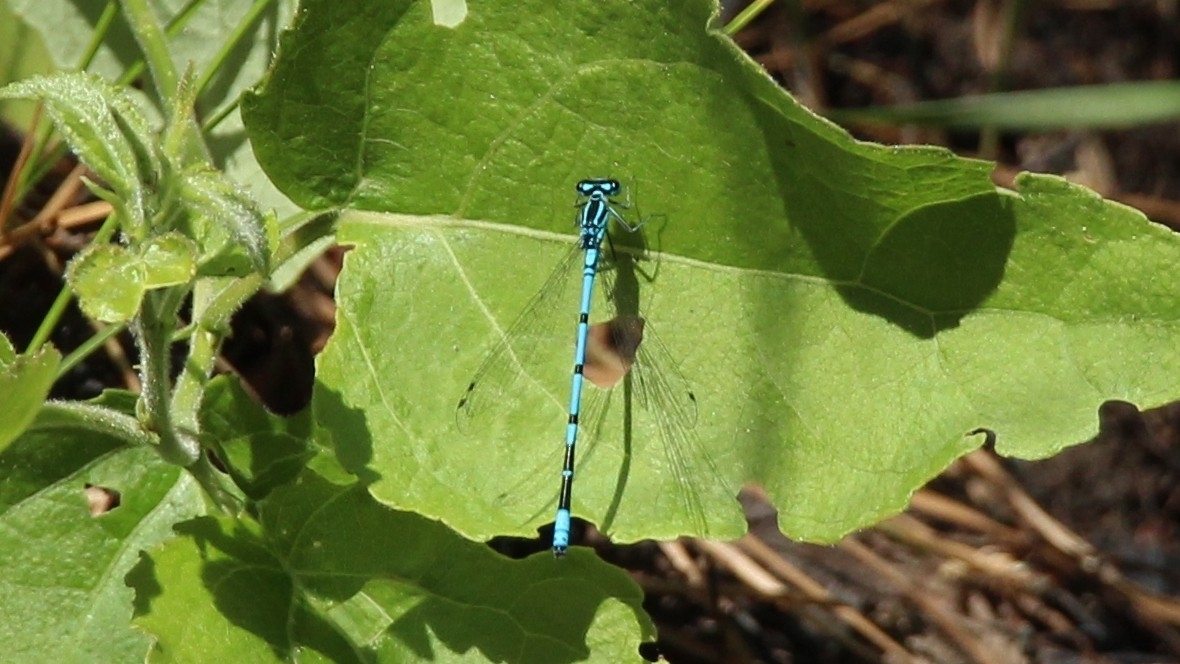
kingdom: Animalia
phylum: Arthropoda
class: Insecta
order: Odonata
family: Coenagrionidae
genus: Coenagrion
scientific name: Coenagrion puella
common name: Azure damselfly
